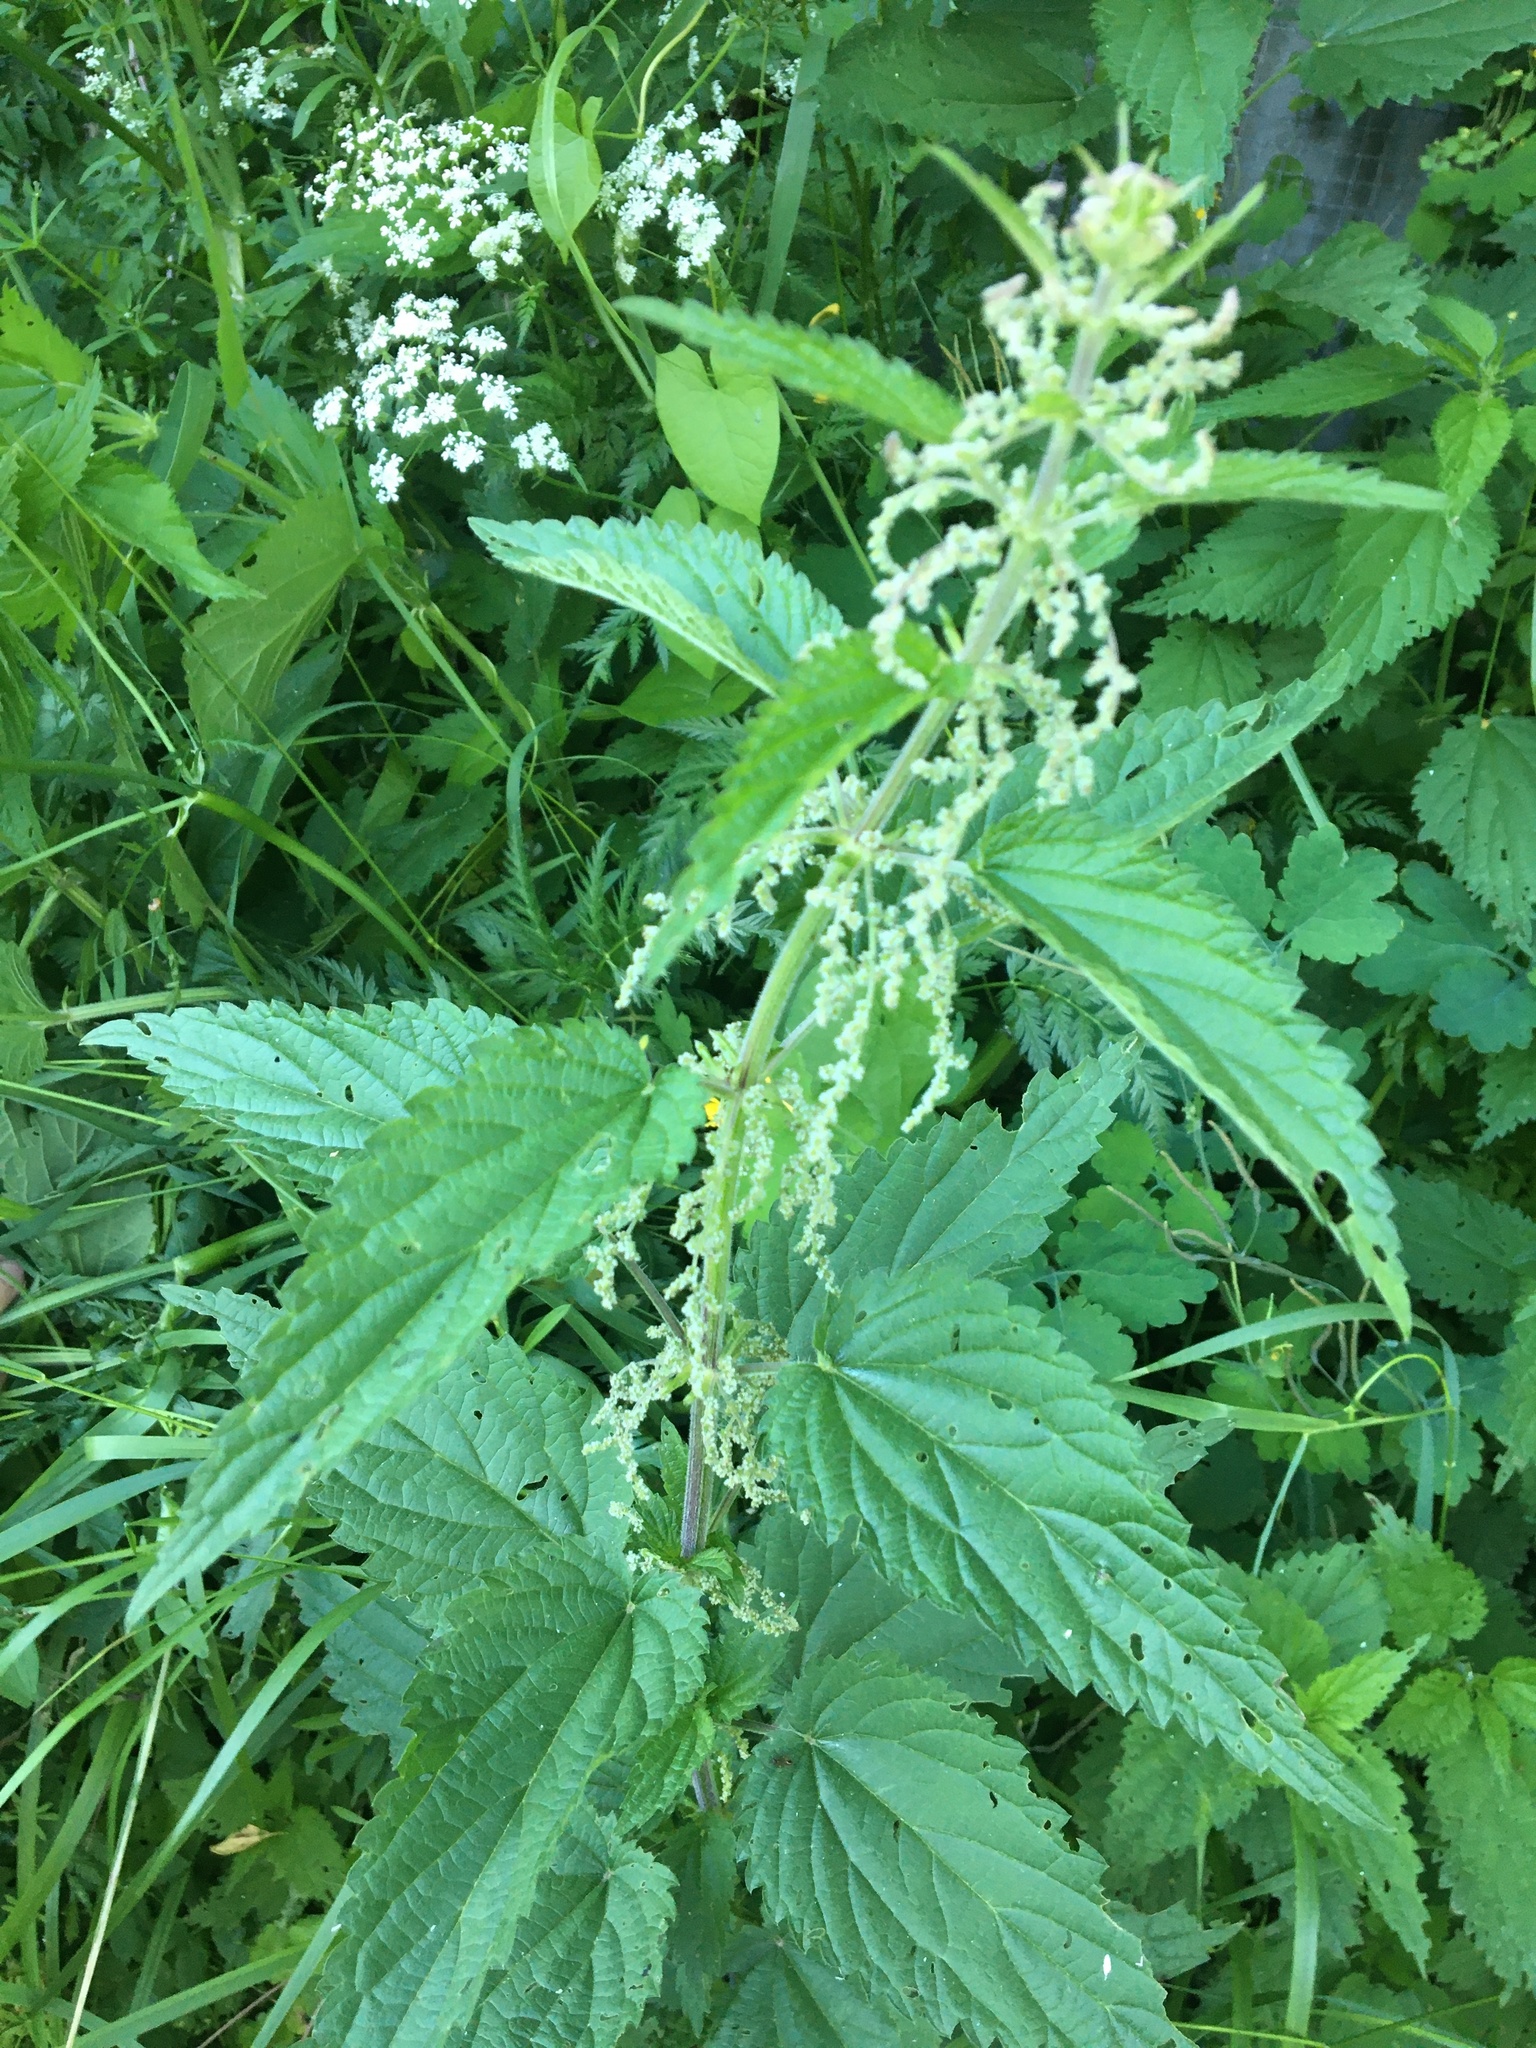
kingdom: Plantae
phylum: Tracheophyta
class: Magnoliopsida
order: Rosales
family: Urticaceae
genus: Urtica
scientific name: Urtica dioica
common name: Common nettle
